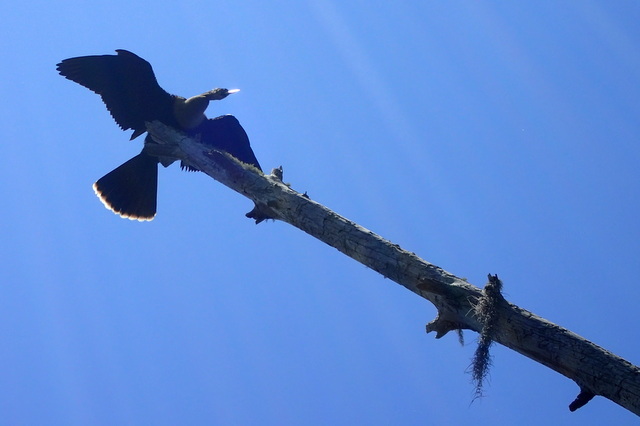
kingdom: Animalia
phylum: Chordata
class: Aves
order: Suliformes
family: Anhingidae
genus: Anhinga
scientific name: Anhinga anhinga
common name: Anhinga
